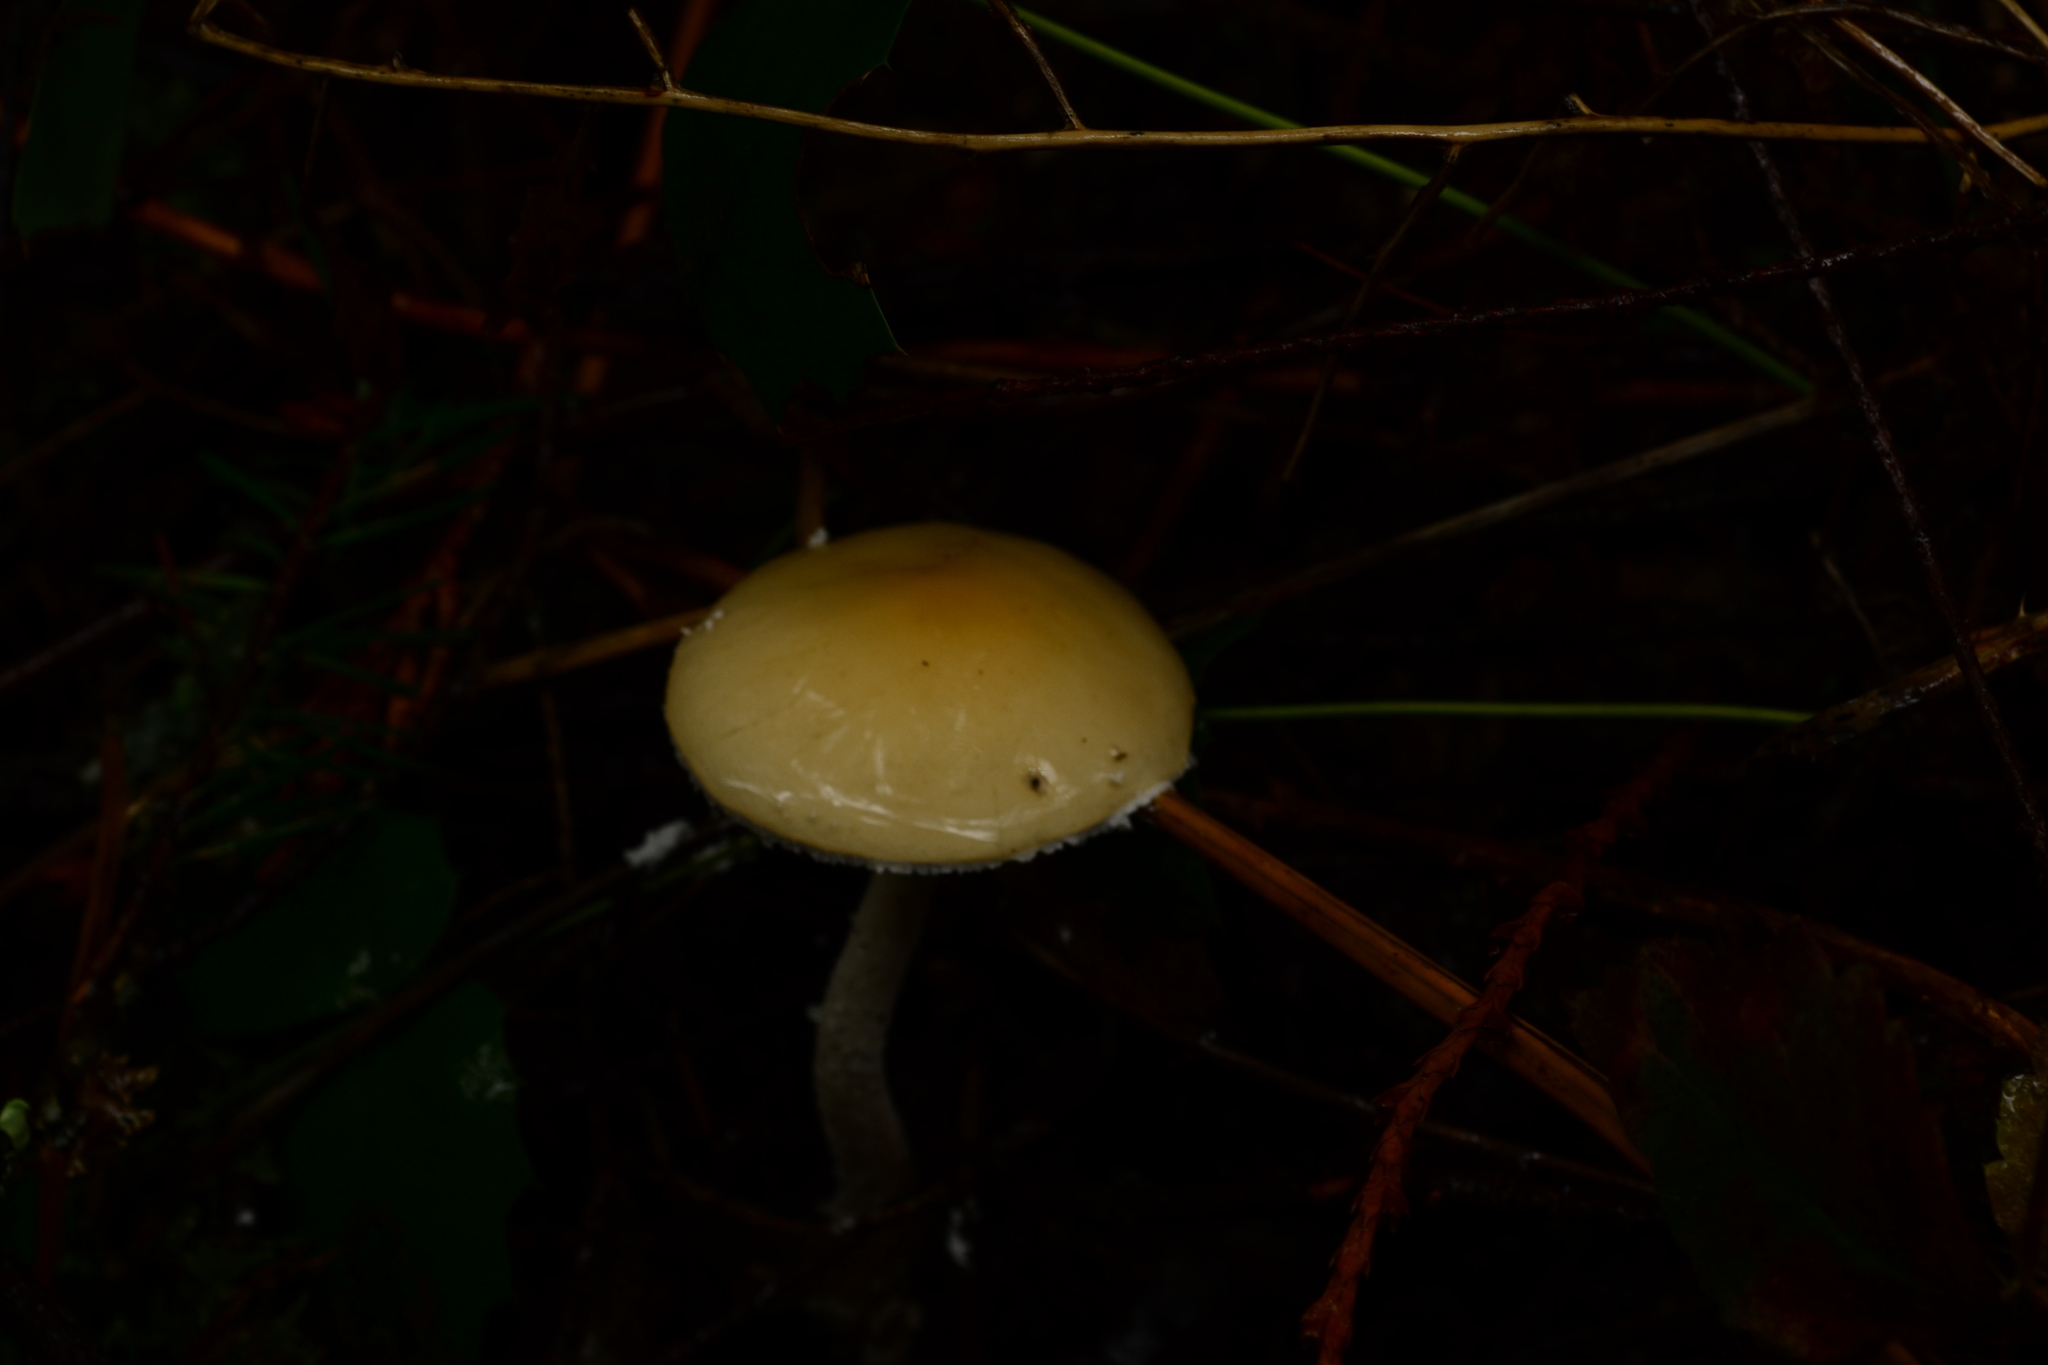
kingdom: Fungi
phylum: Basidiomycota
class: Agaricomycetes
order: Agaricales
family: Strophariaceae
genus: Stropharia
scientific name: Stropharia ambigua
